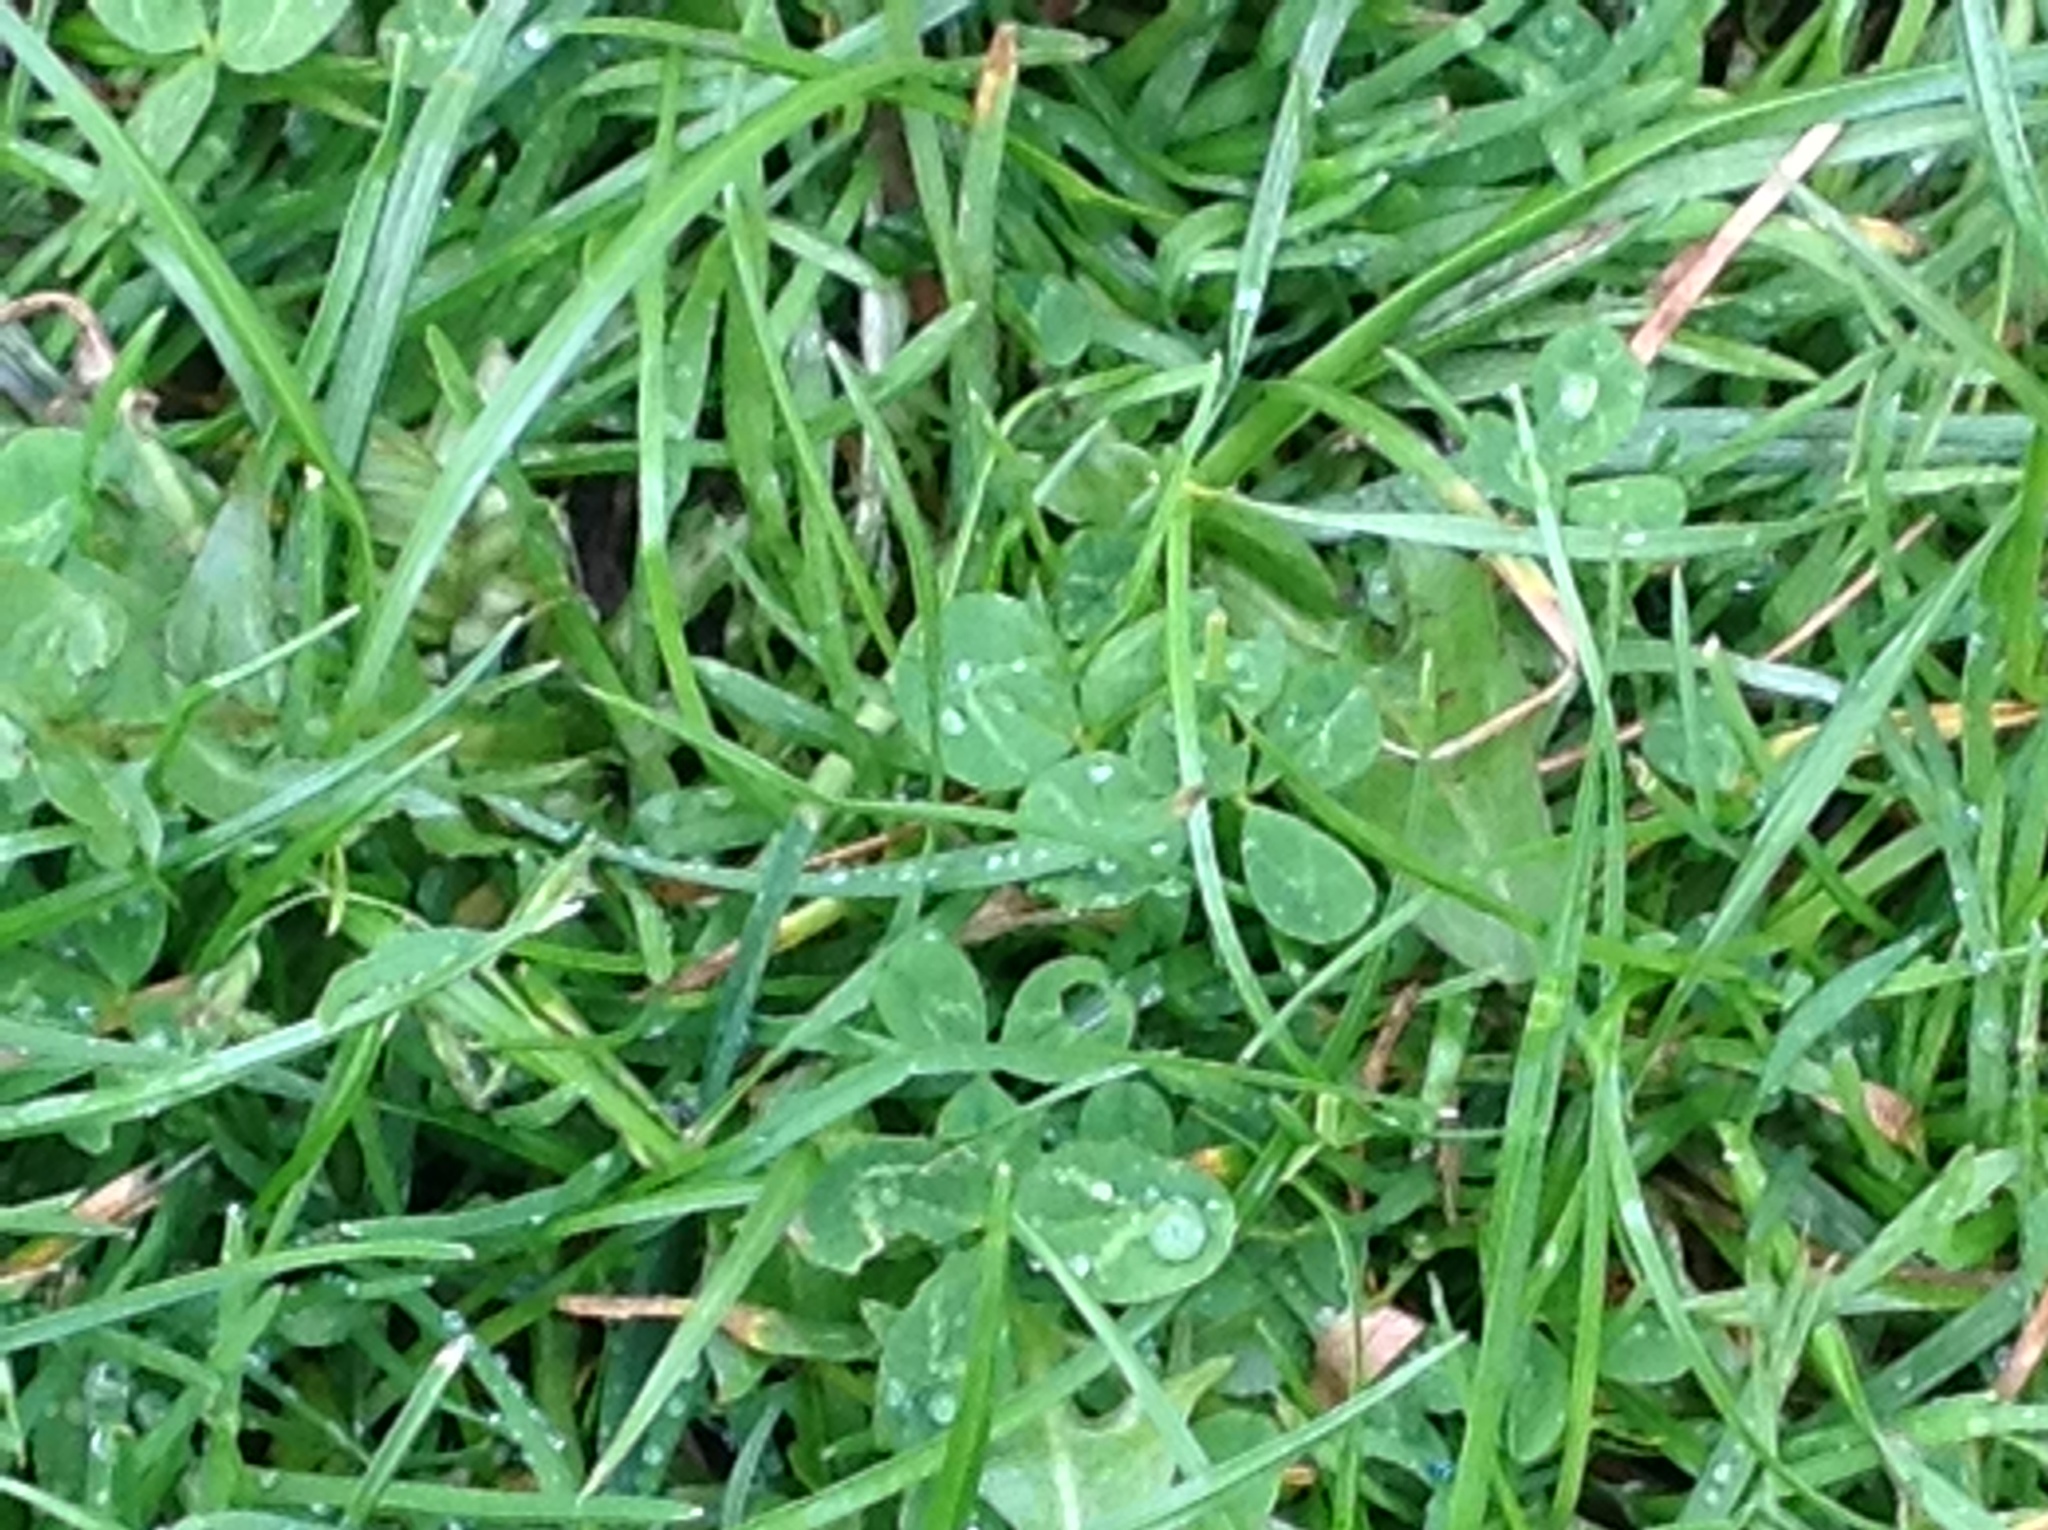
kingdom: Plantae
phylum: Tracheophyta
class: Magnoliopsida
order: Fabales
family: Fabaceae
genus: Trifolium
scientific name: Trifolium repens
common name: White clover
